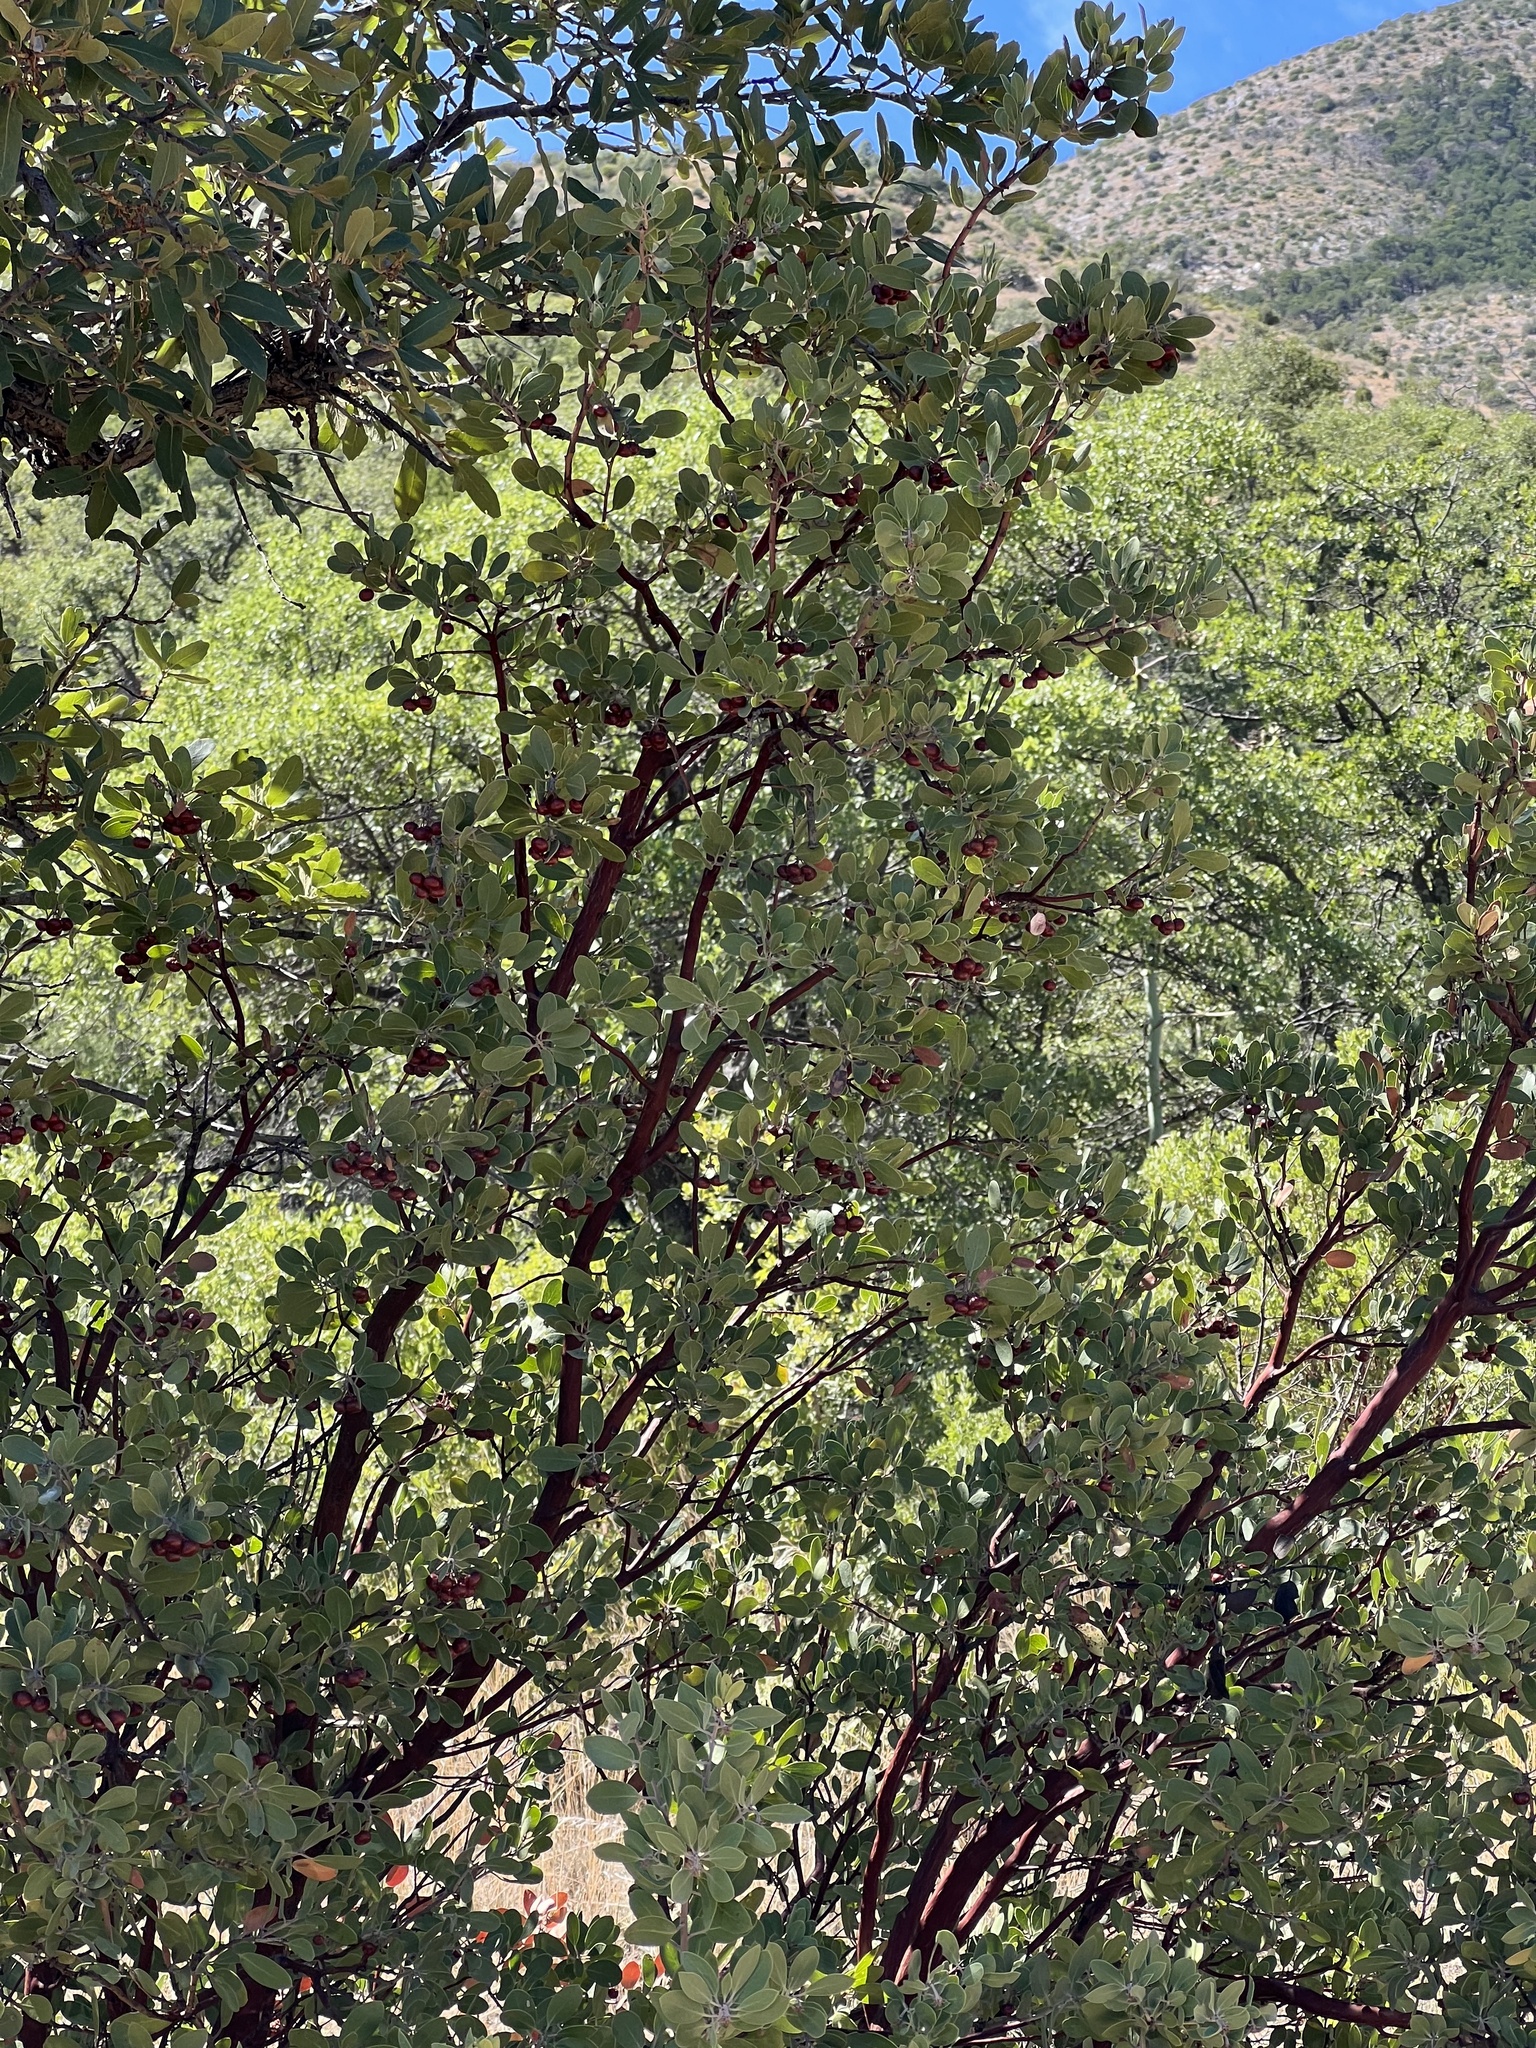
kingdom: Plantae
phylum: Tracheophyta
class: Magnoliopsida
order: Ericales
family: Ericaceae
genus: Arctostaphylos
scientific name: Arctostaphylos pungens
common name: Mexican manzanita
